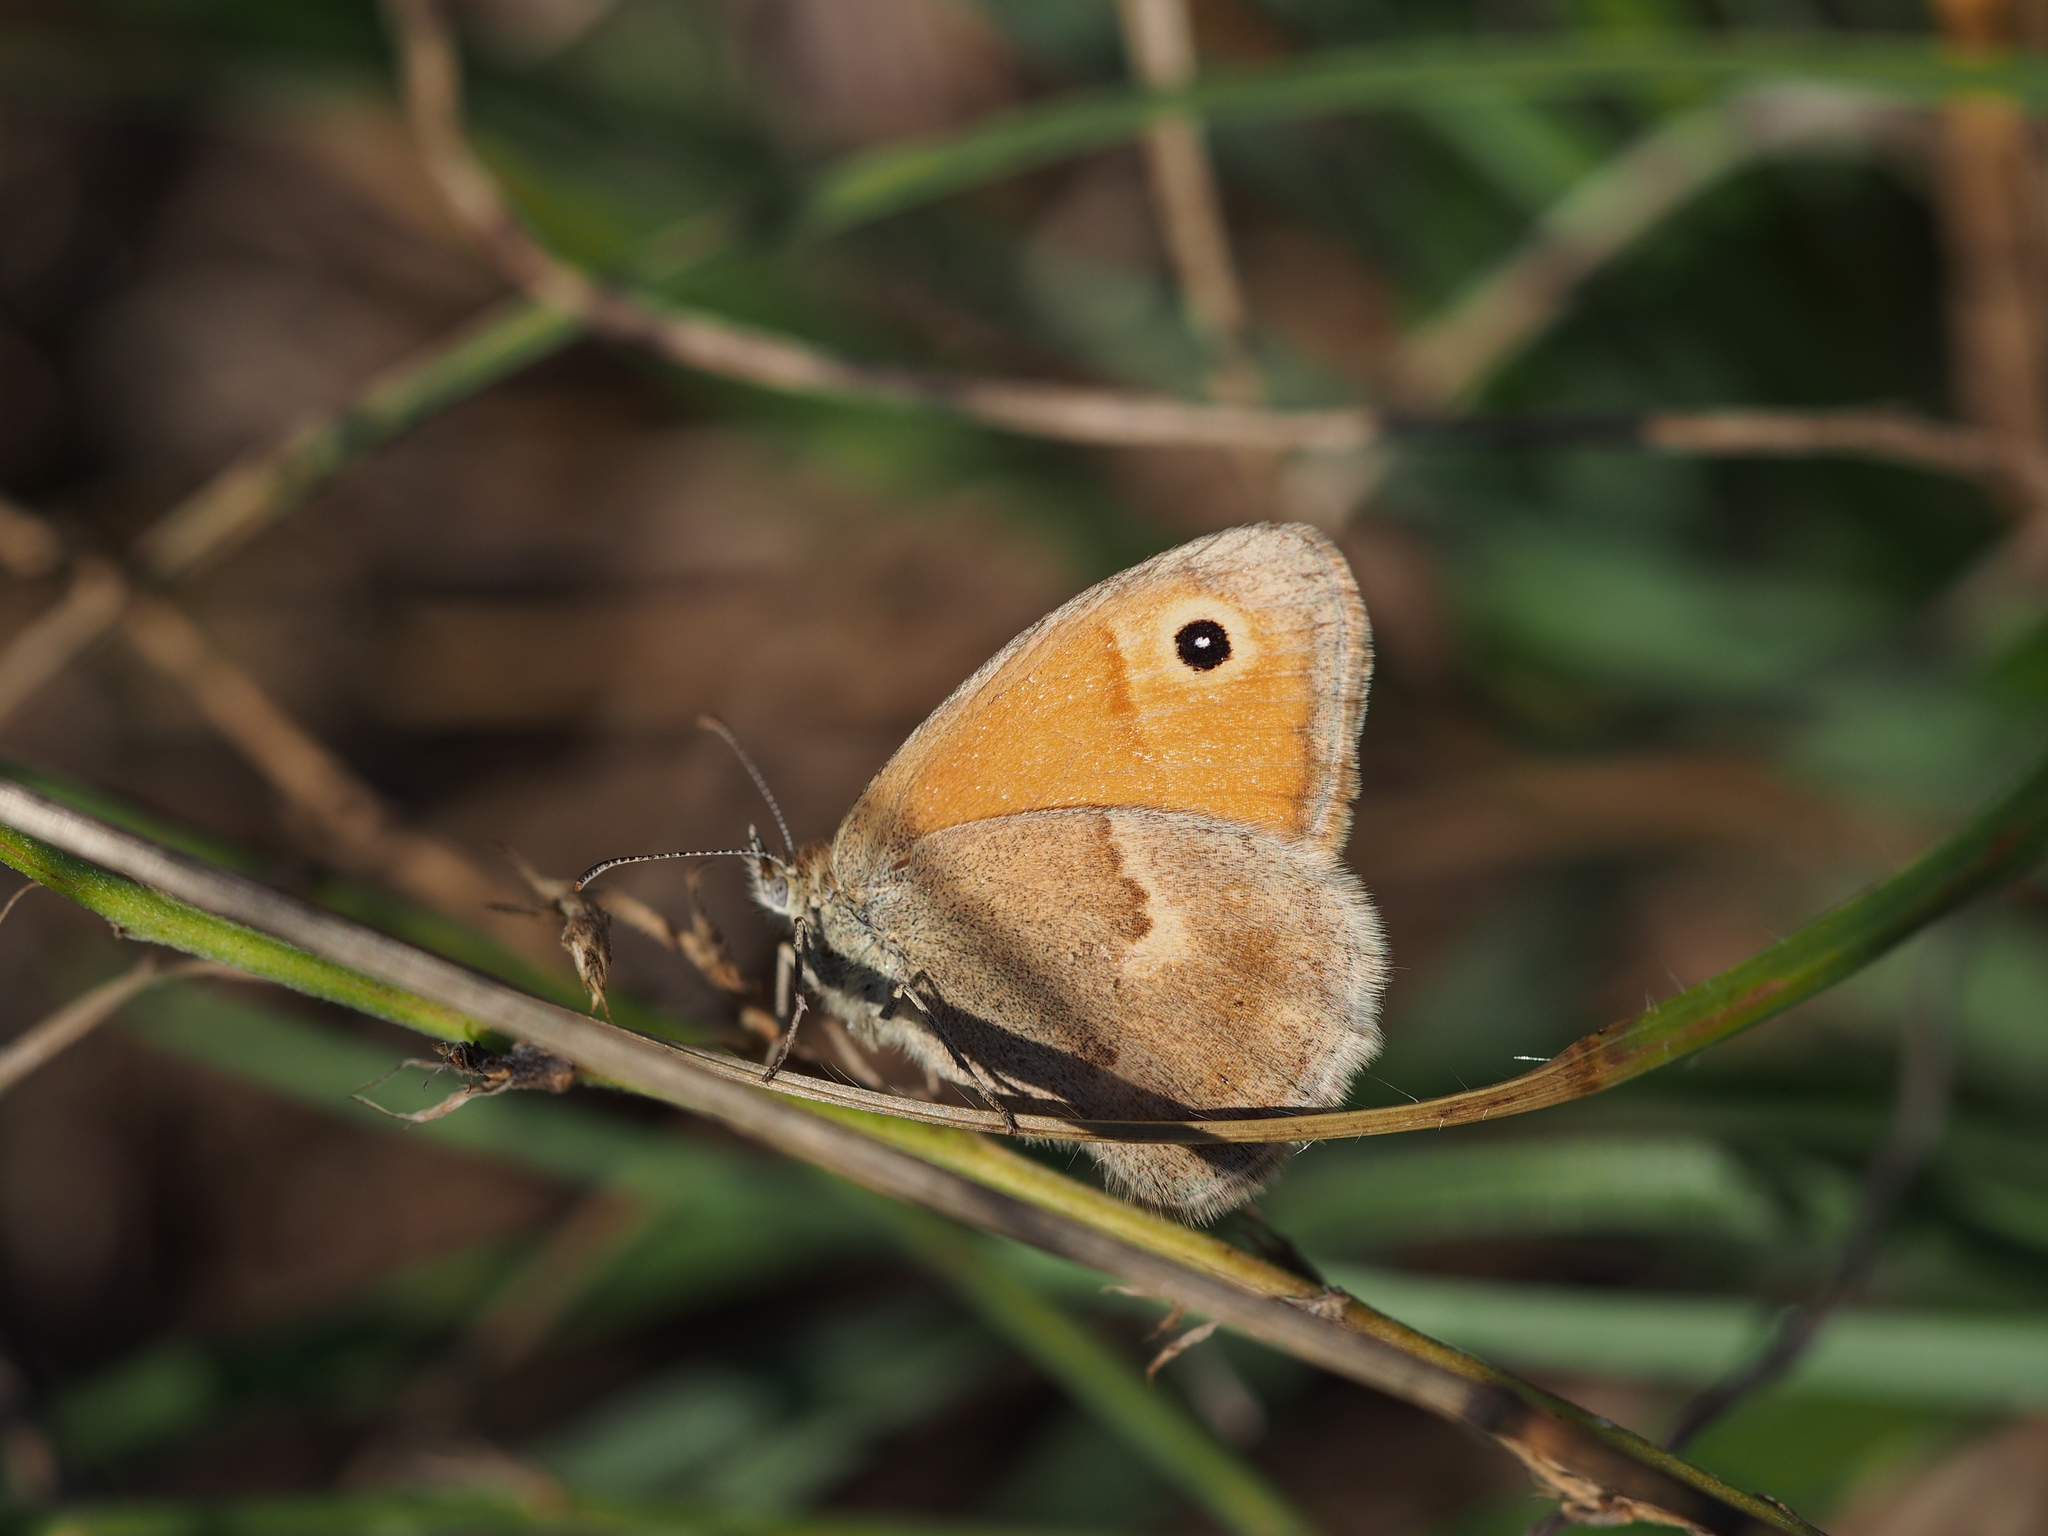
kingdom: Animalia
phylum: Arthropoda
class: Insecta
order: Lepidoptera
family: Nymphalidae
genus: Coenonympha
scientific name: Coenonympha pamphilus
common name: Small heath
